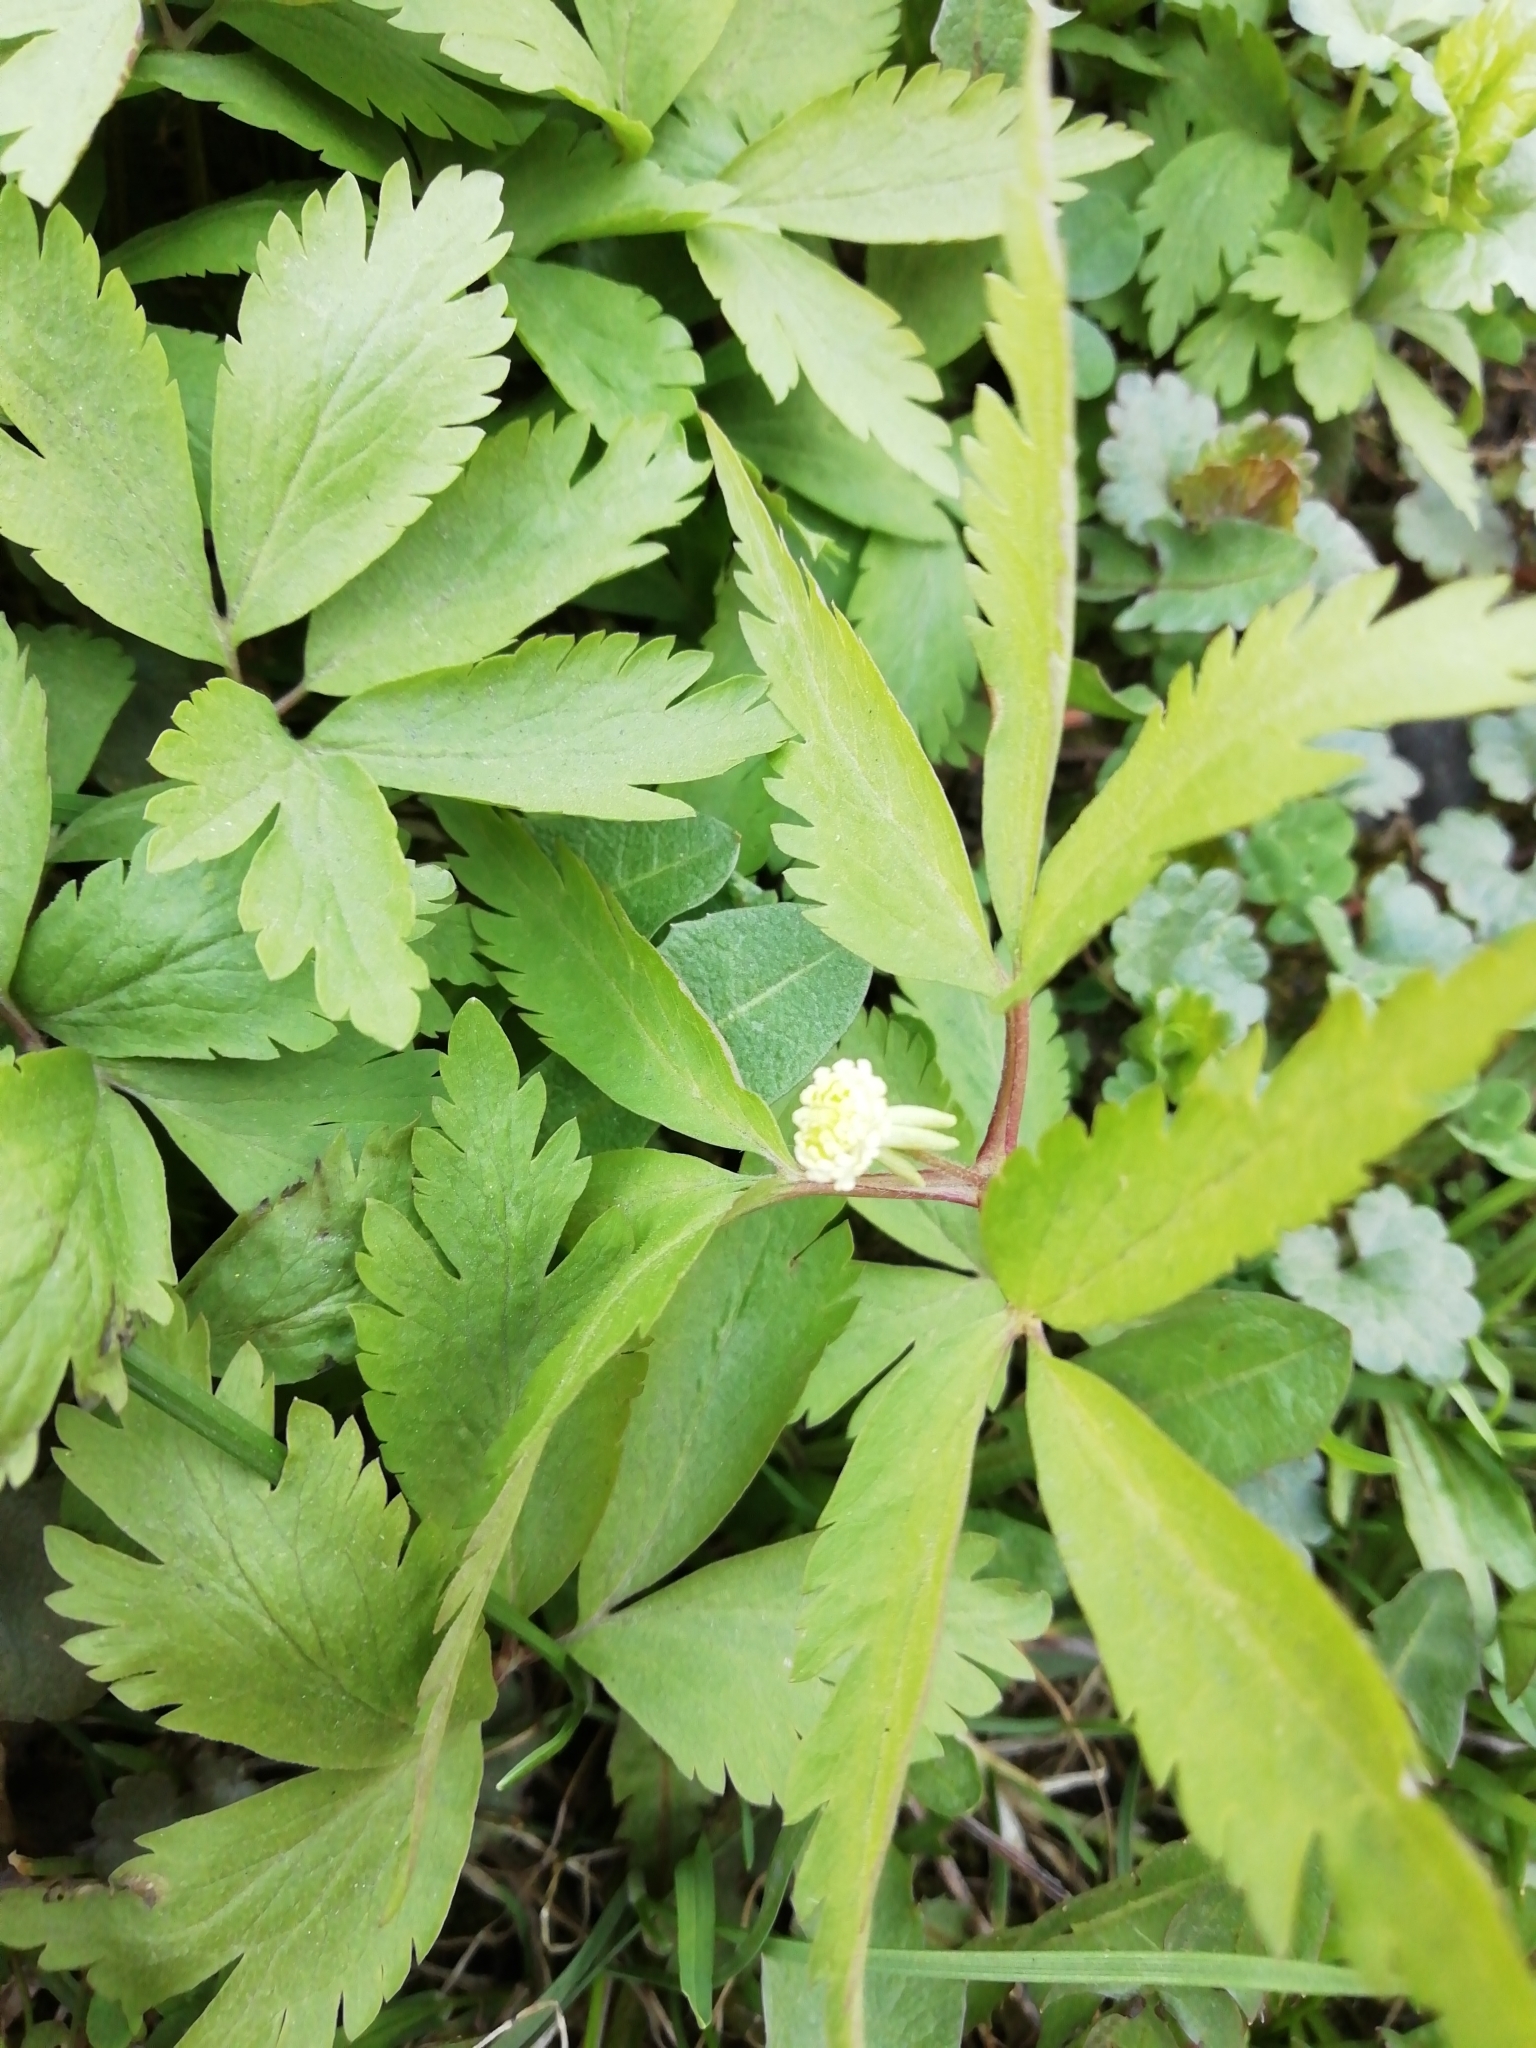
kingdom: Plantae
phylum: Tracheophyta
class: Magnoliopsida
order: Ranunculales
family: Ranunculaceae
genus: Anemone
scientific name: Anemone reflexa
